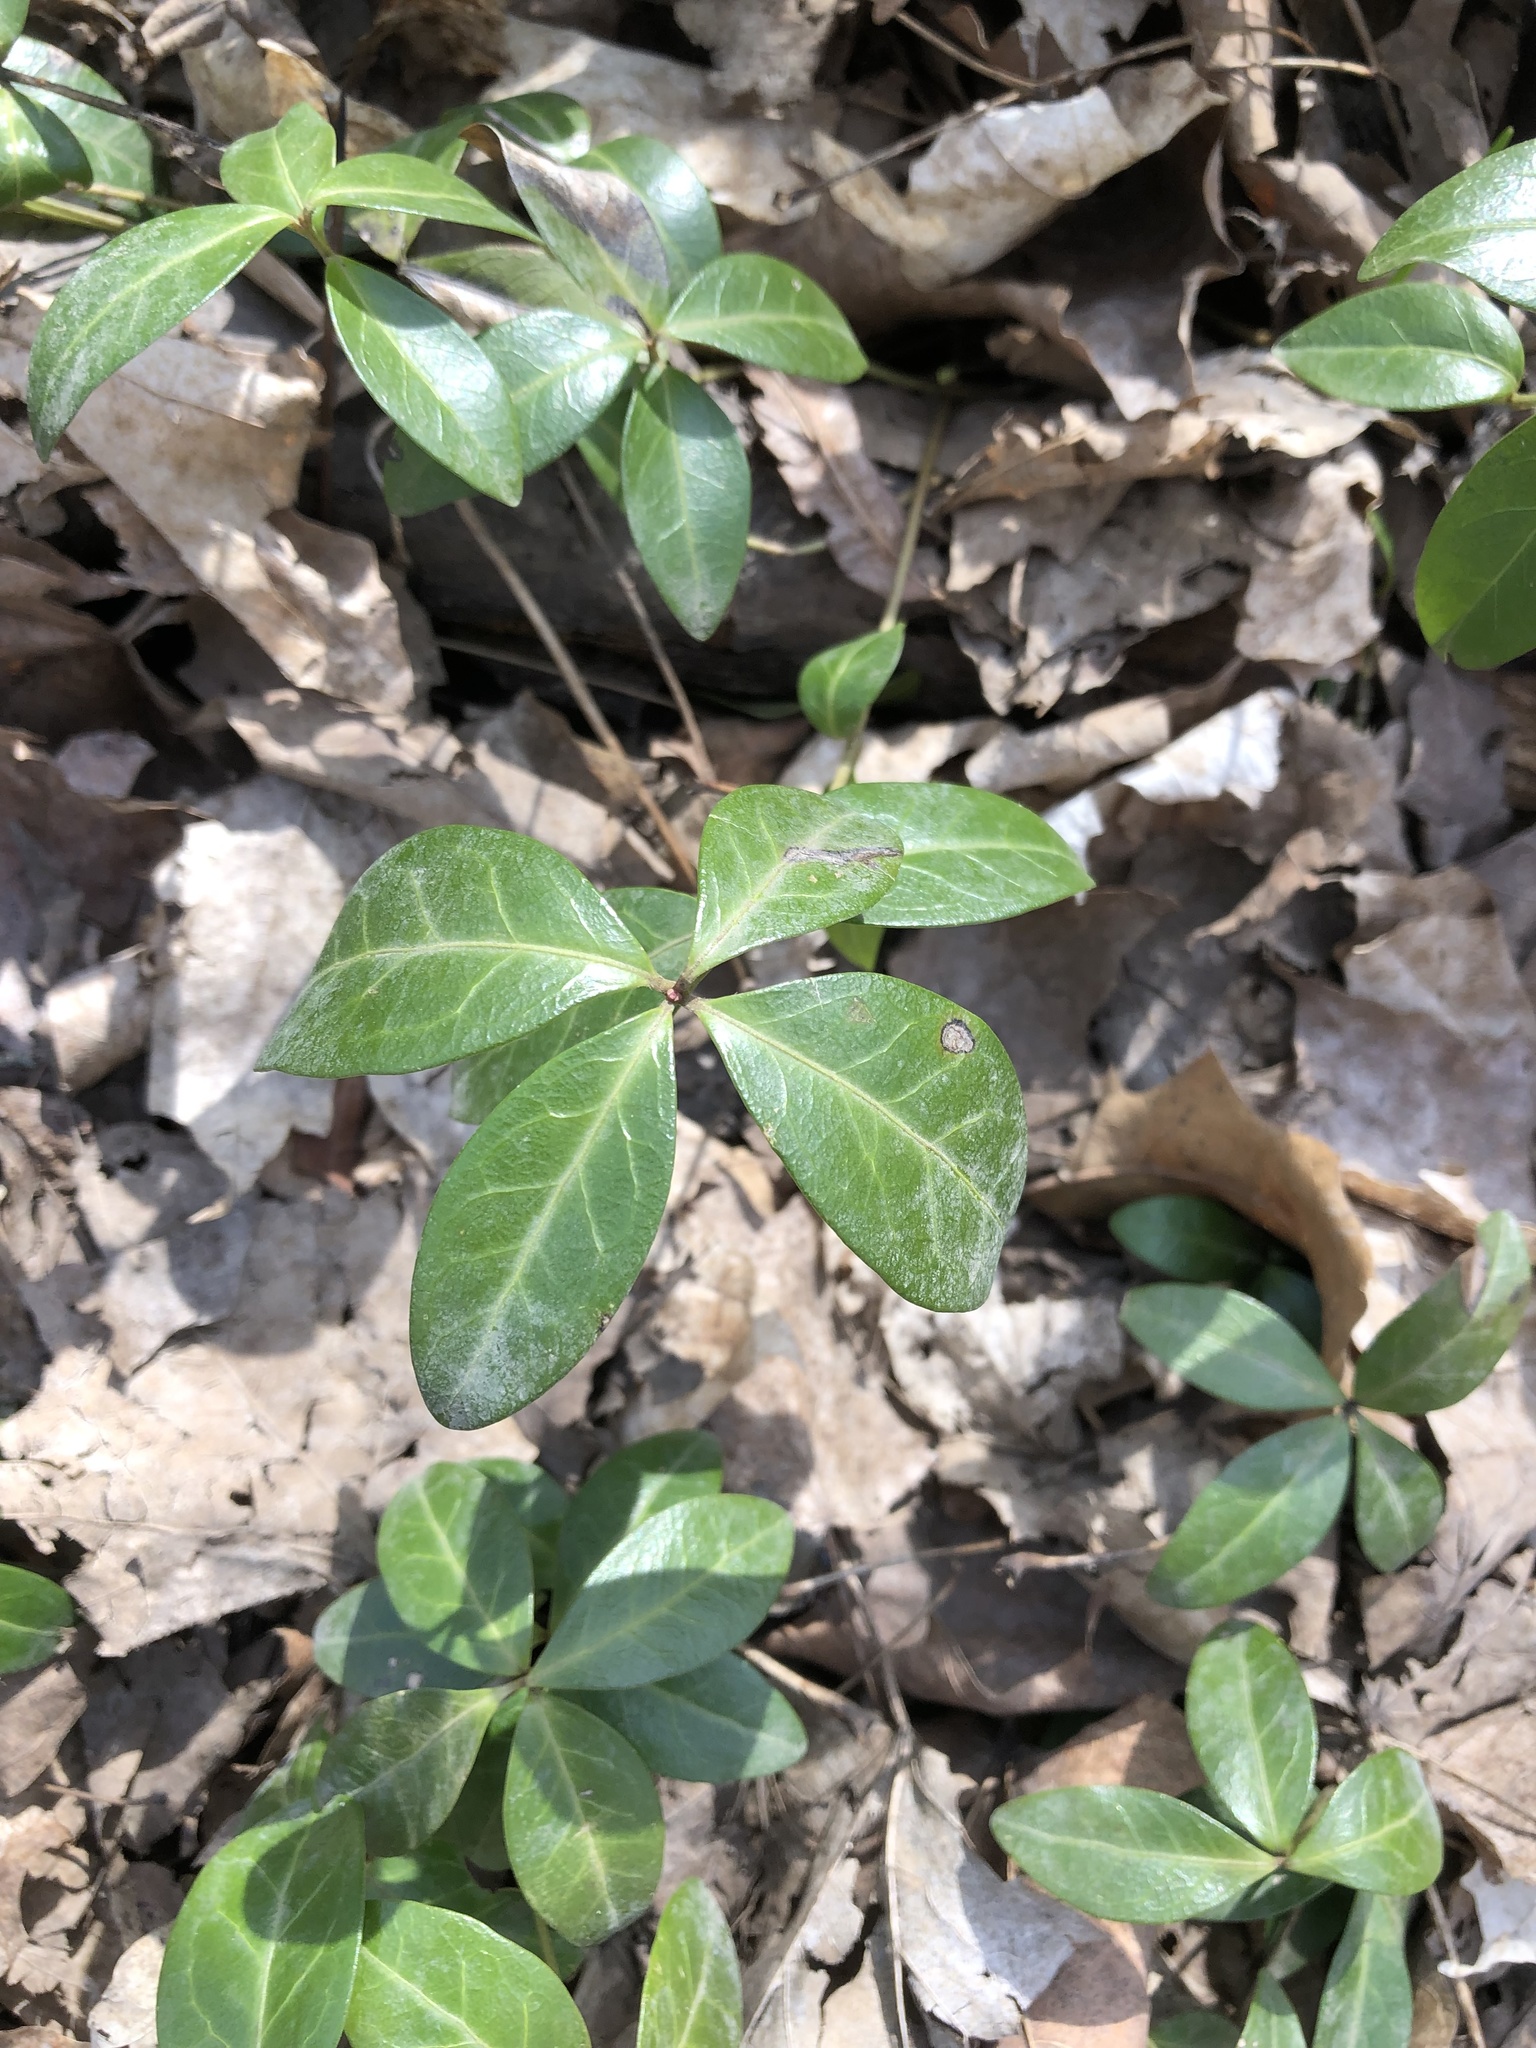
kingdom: Plantae
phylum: Tracheophyta
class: Magnoliopsida
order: Ericales
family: Ericaceae
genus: Gaultheria
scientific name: Gaultheria procumbens
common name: Checkerberry
